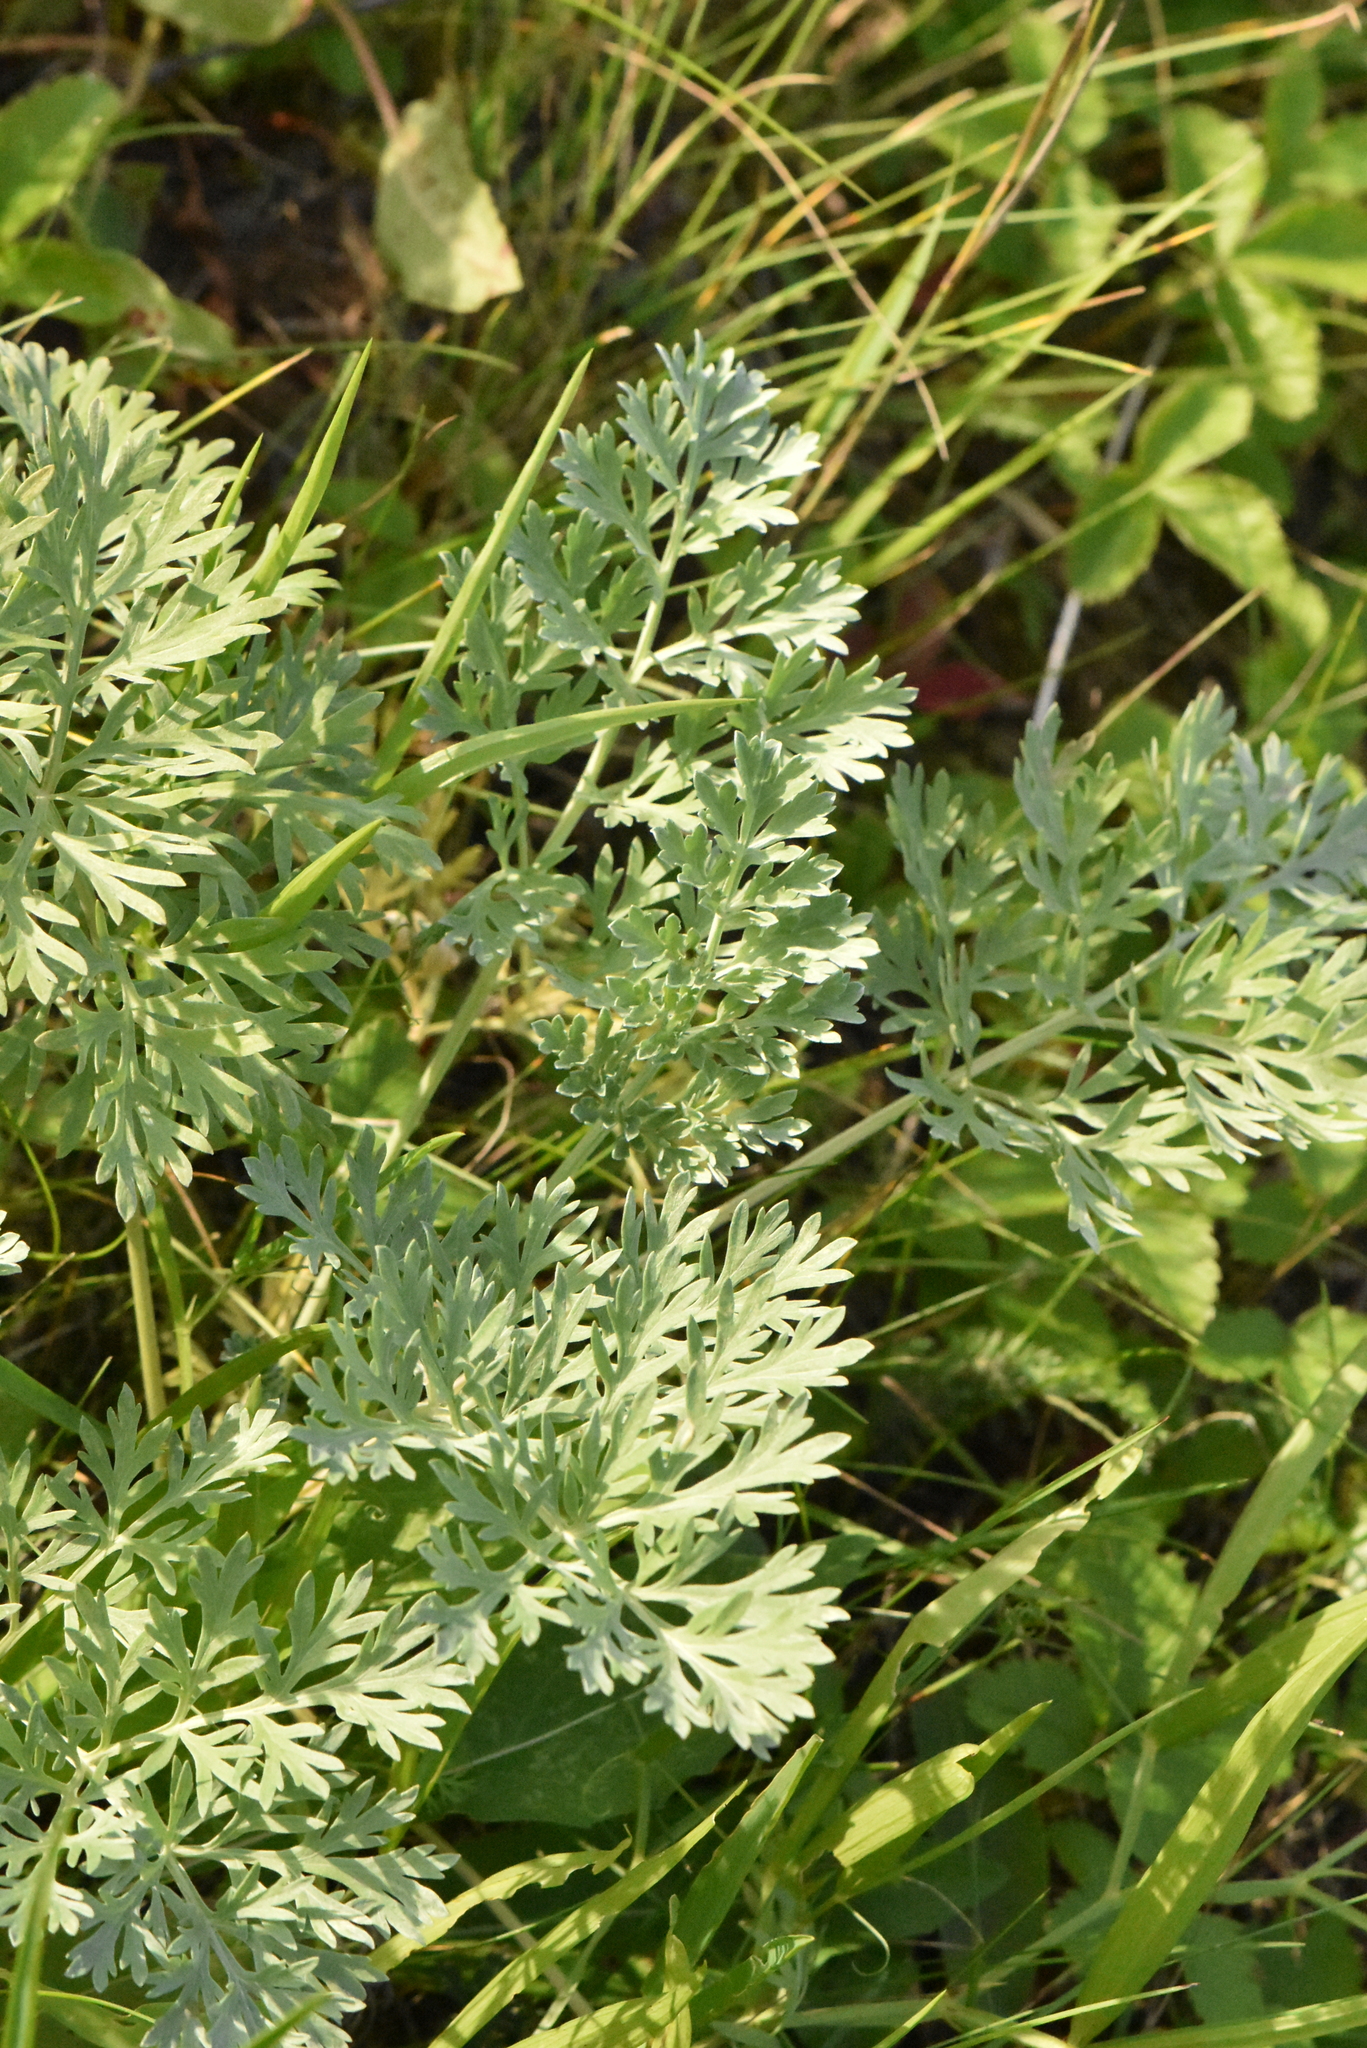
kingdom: Plantae
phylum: Tracheophyta
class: Magnoliopsida
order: Asterales
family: Asteraceae
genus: Artemisia
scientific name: Artemisia absinthium
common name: Wormwood
